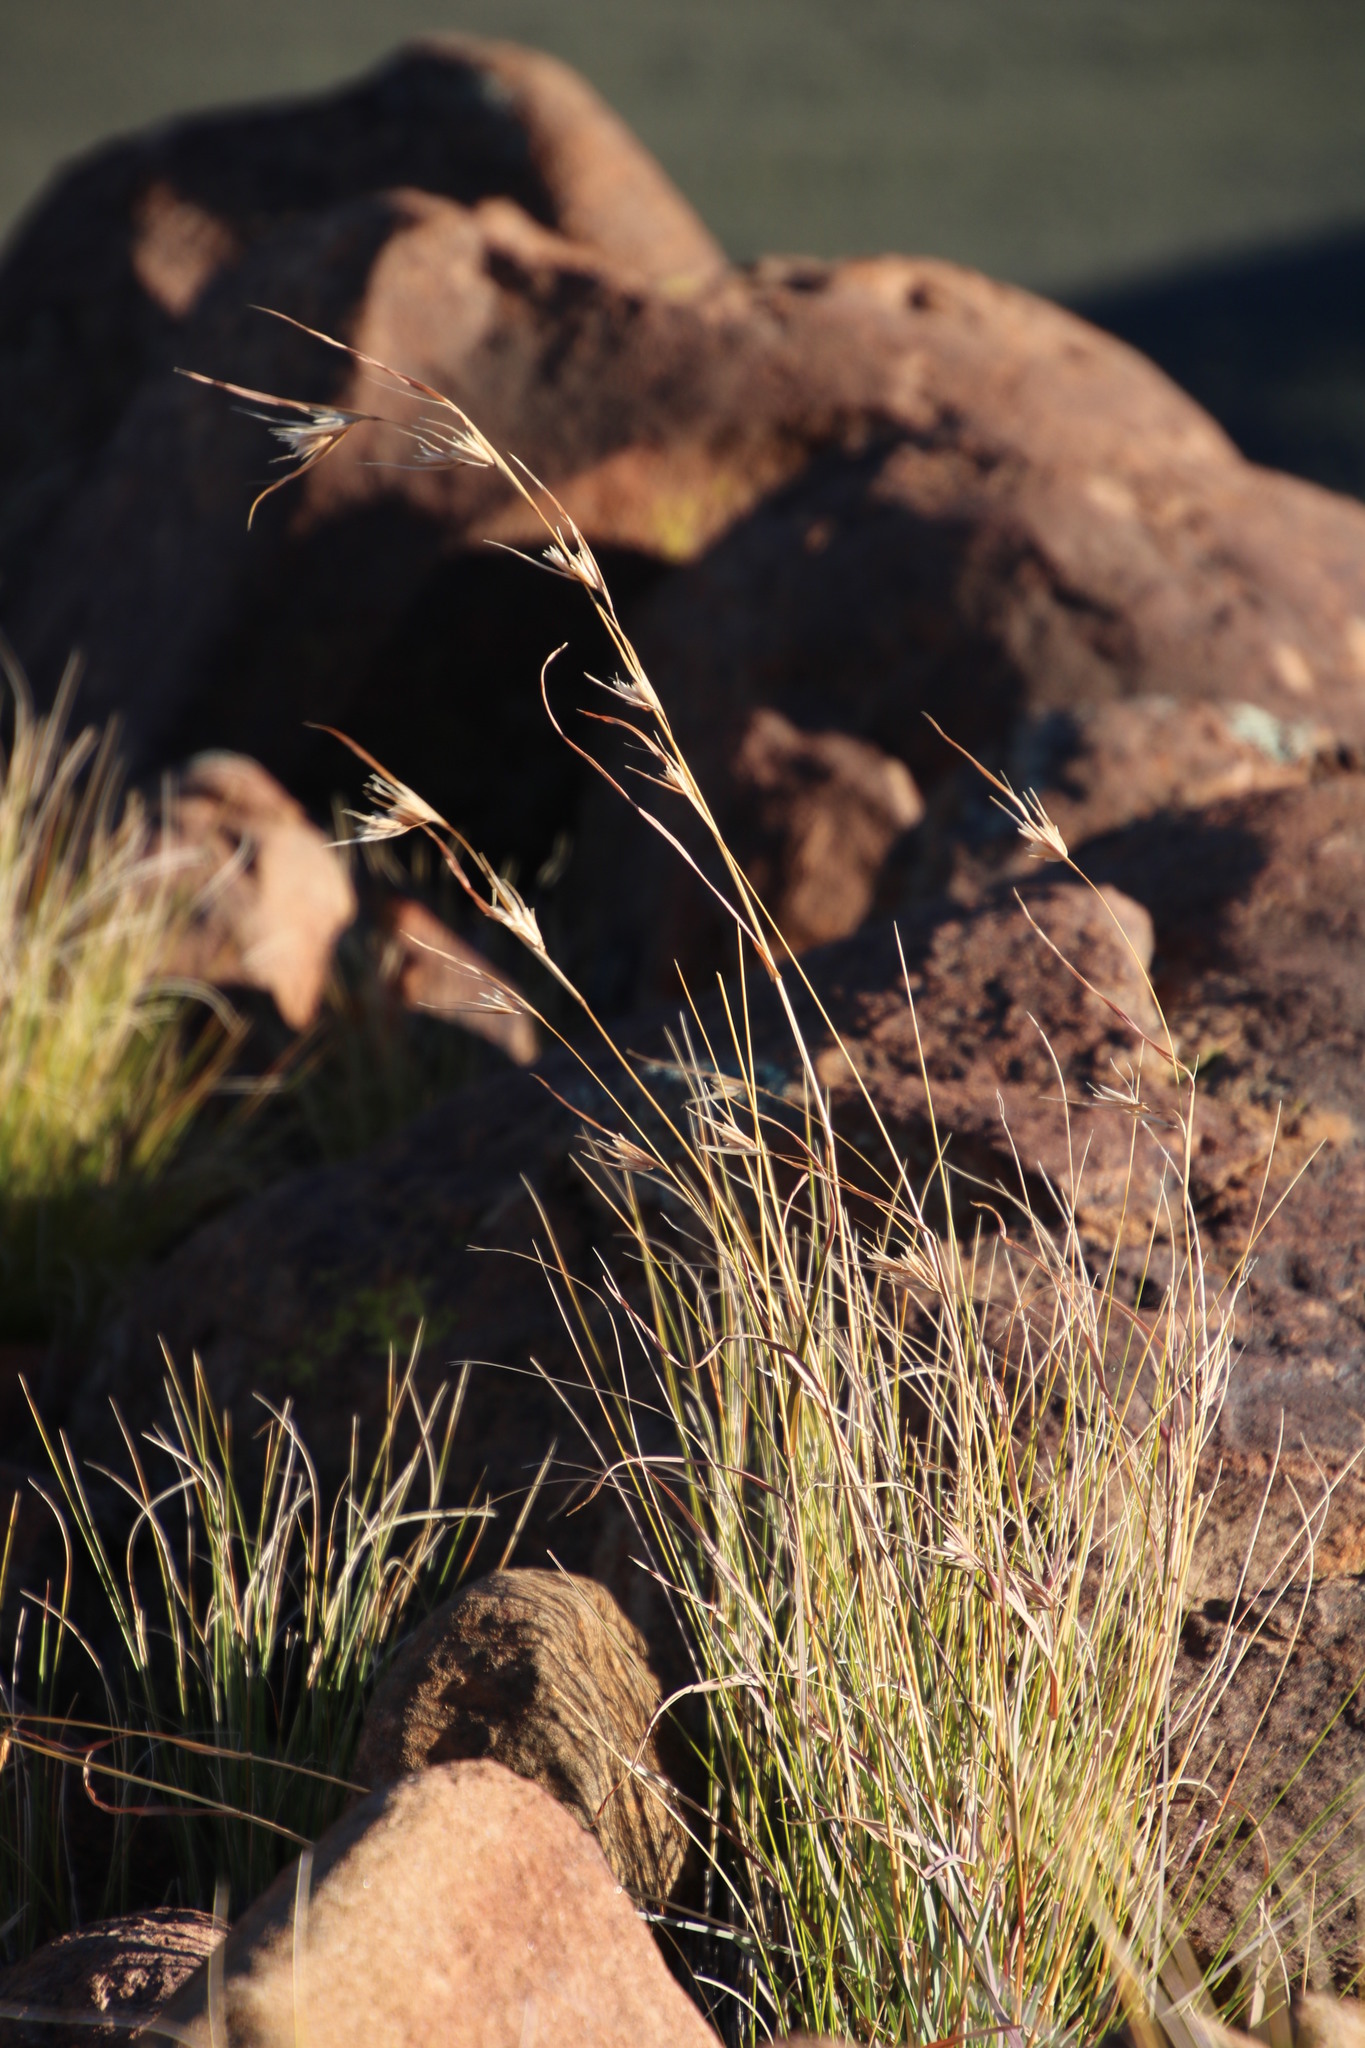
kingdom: Plantae
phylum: Tracheophyta
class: Liliopsida
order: Poales
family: Poaceae
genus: Themeda
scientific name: Themeda triandra
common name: Kangaroo grass
